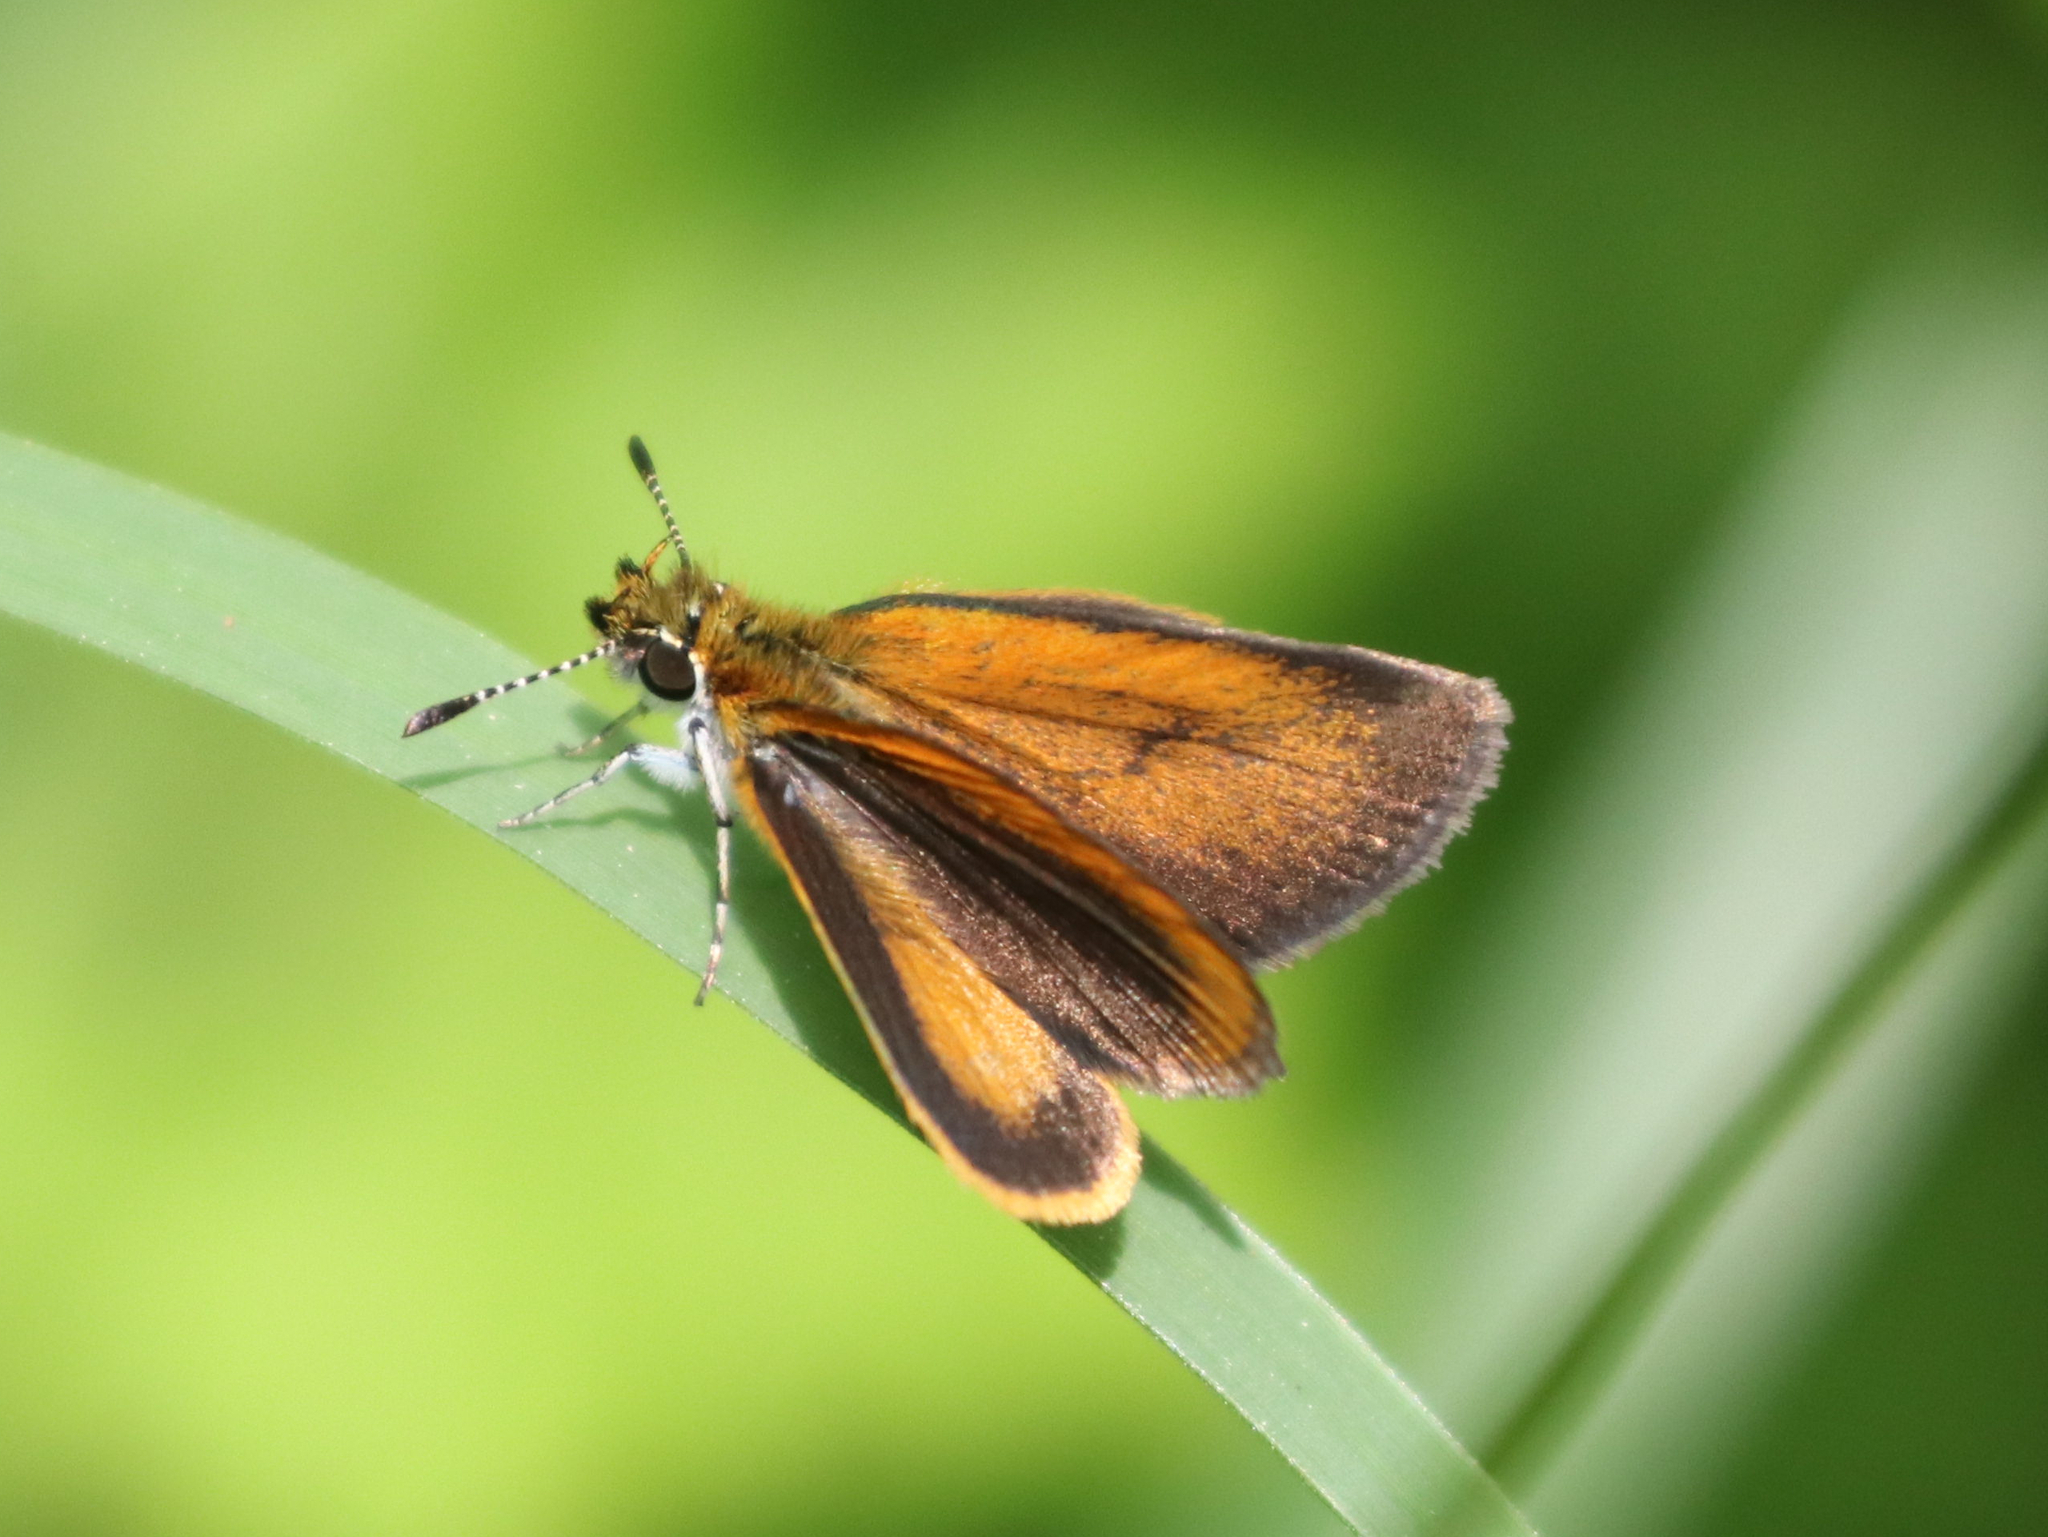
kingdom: Animalia
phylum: Arthropoda
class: Insecta
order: Lepidoptera
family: Hesperiidae
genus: Ancyloxypha
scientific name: Ancyloxypha numitor
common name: Least skipper
